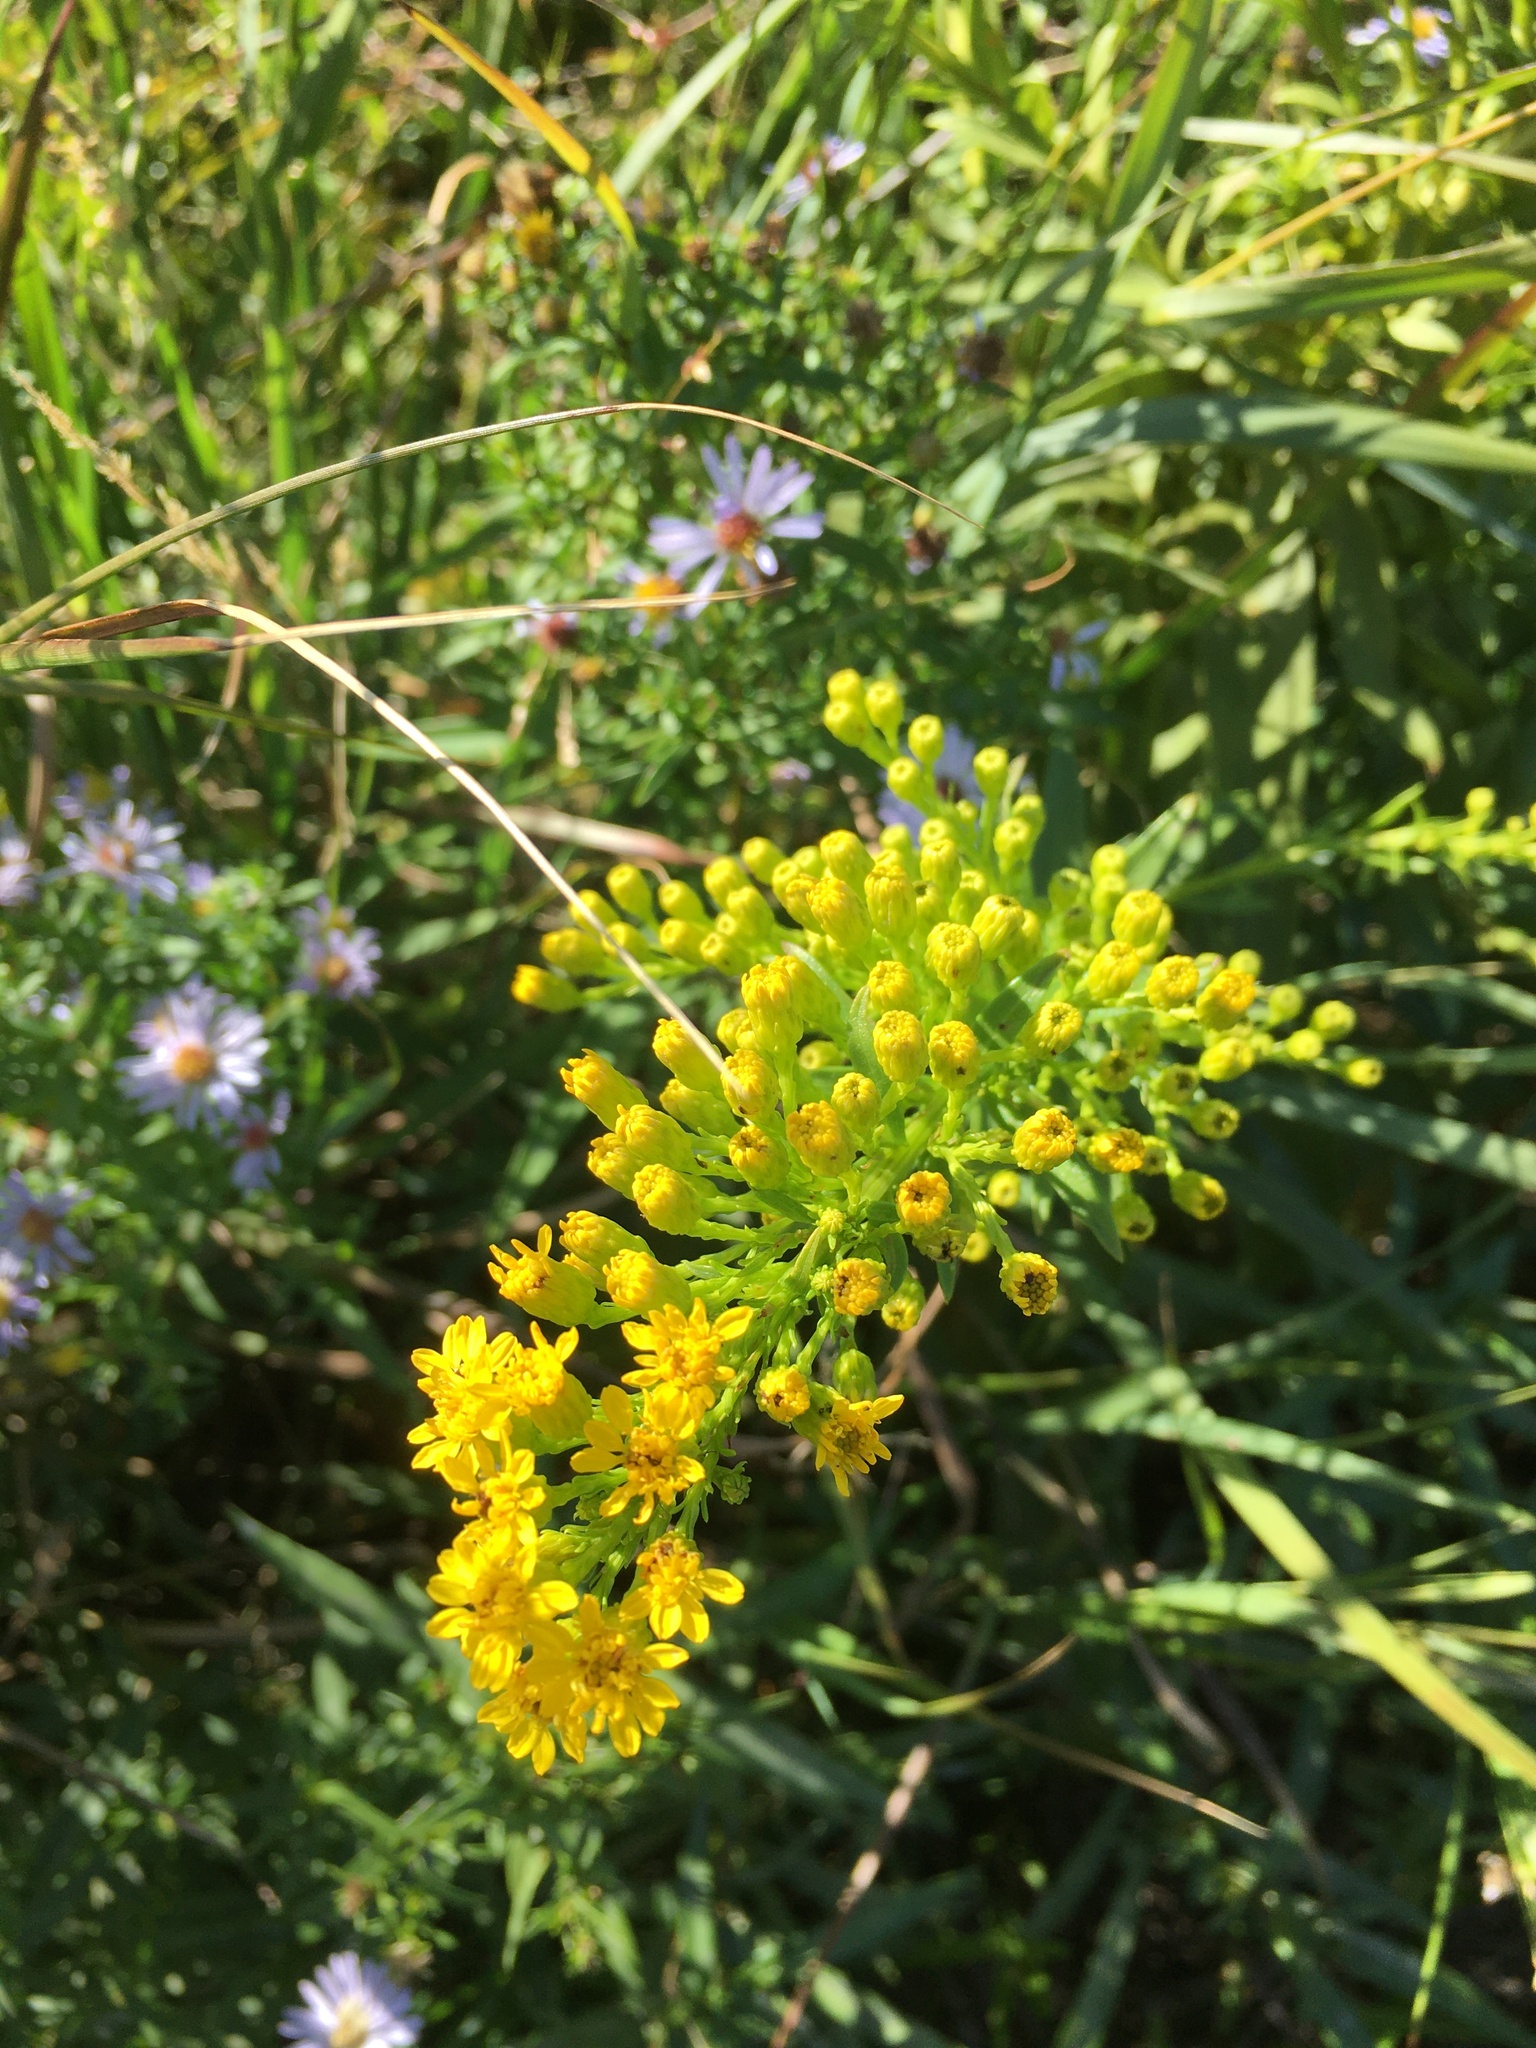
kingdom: Plantae
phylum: Tracheophyta
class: Magnoliopsida
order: Asterales
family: Asteraceae
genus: Solidago
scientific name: Solidago sempervirens
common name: Salt-marsh goldenrod
